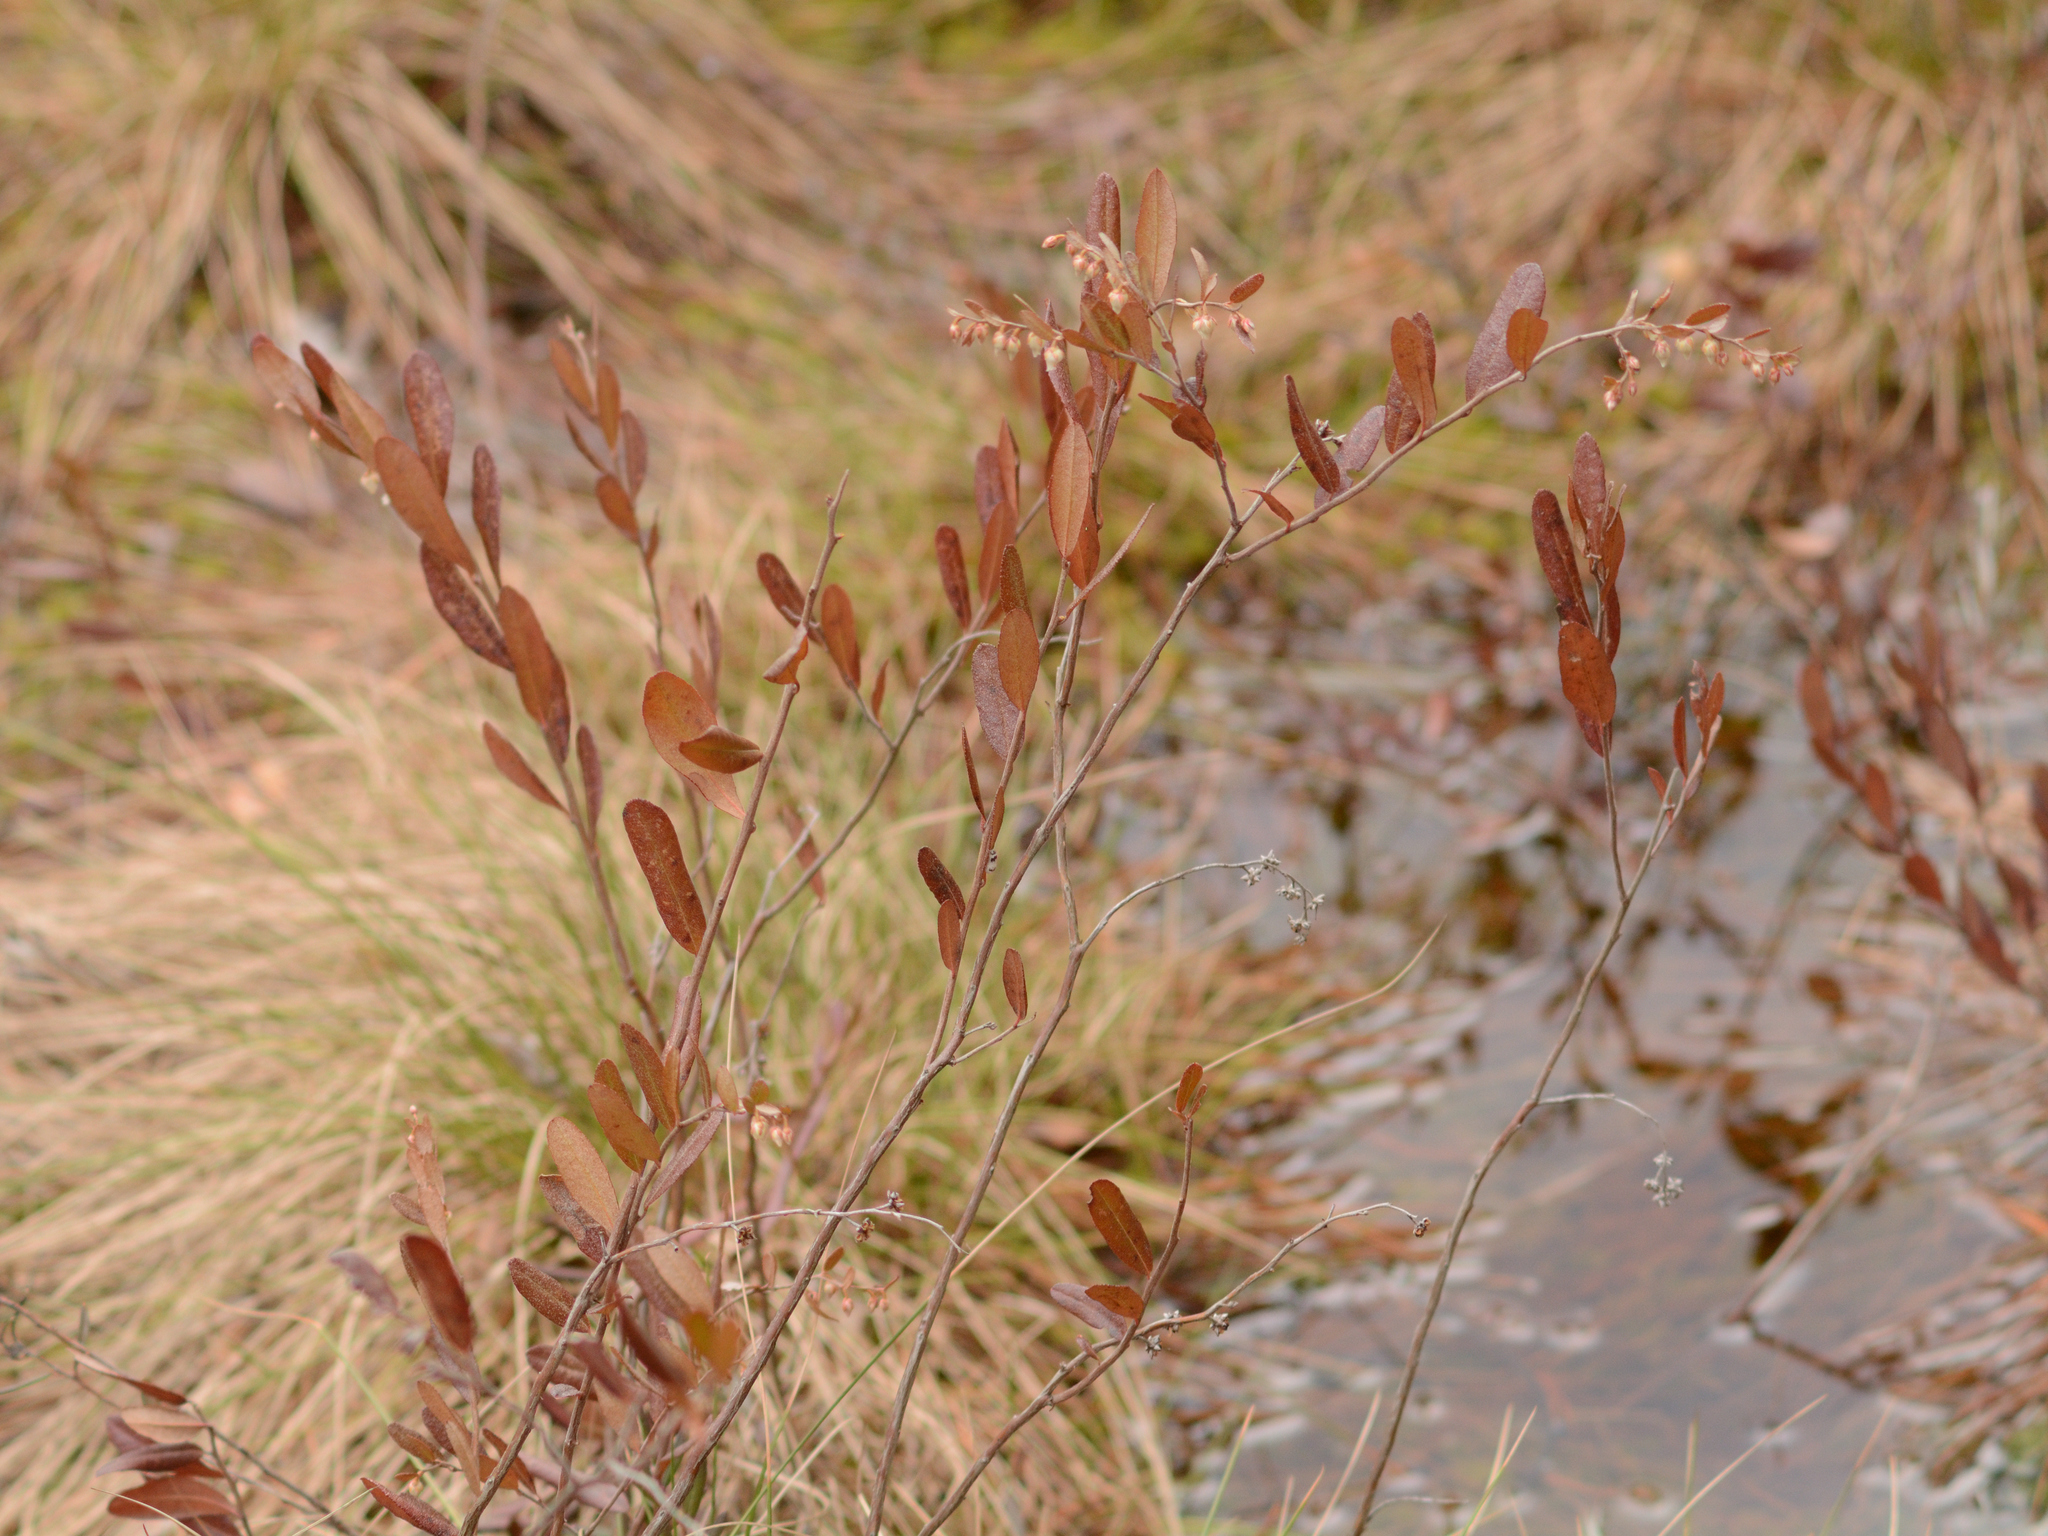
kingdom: Plantae
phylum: Tracheophyta
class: Magnoliopsida
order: Ericales
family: Ericaceae
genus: Chamaedaphne
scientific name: Chamaedaphne calyculata
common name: Leatherleaf
